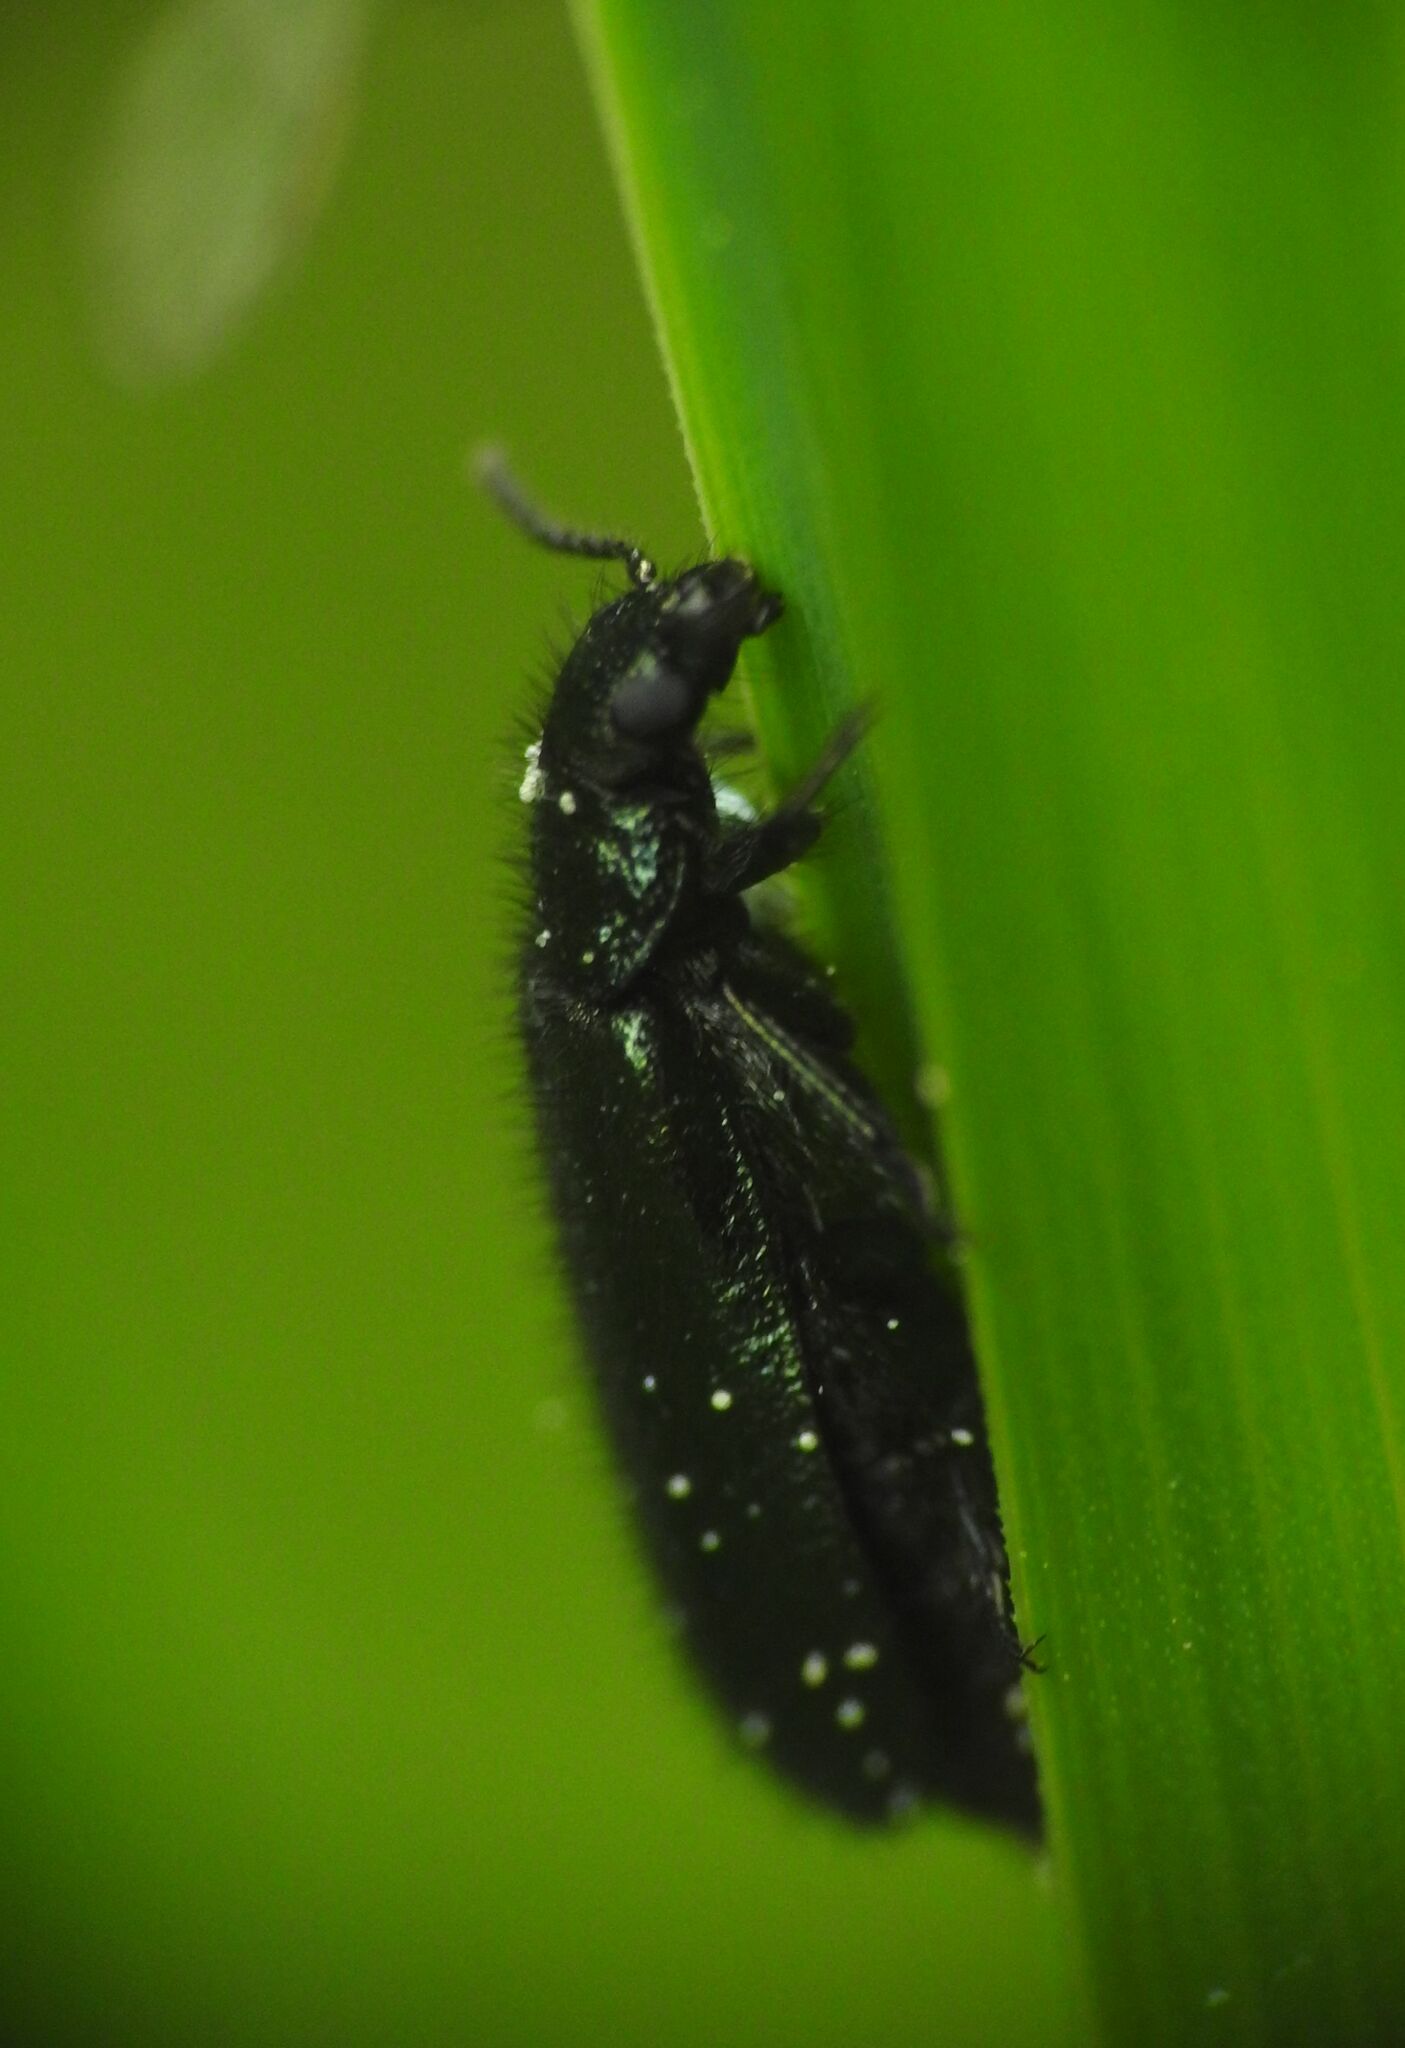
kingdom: Animalia
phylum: Arthropoda
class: Insecta
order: Coleoptera
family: Melyridae
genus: Dasytes
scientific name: Dasytes caeruleus
